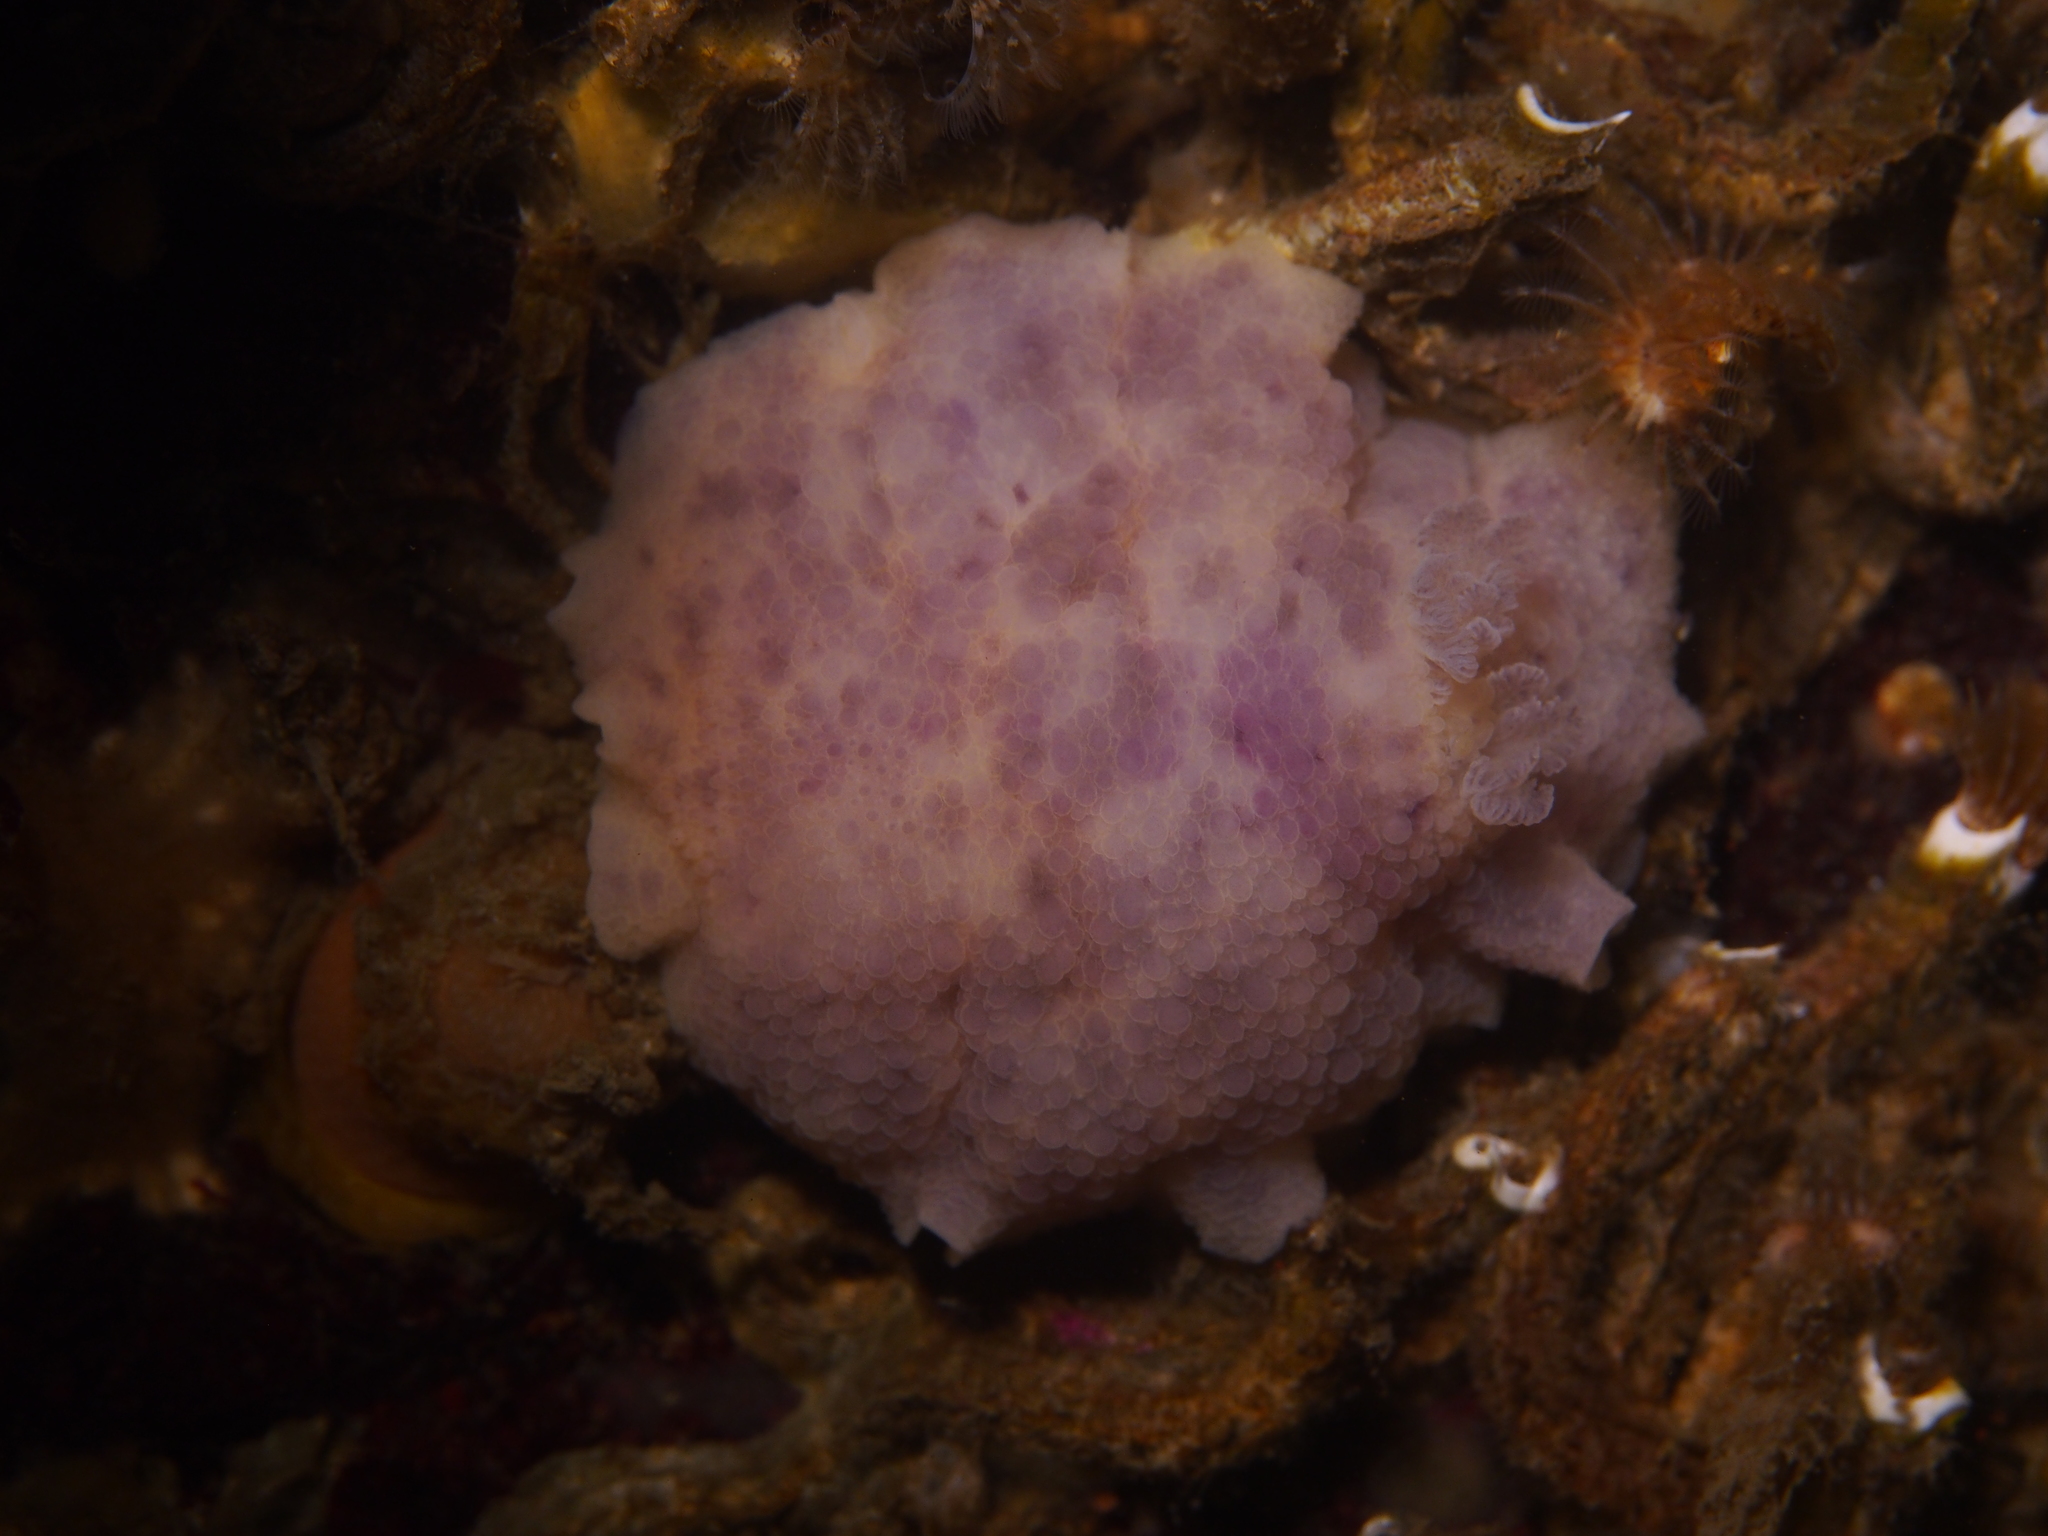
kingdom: Animalia
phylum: Mollusca
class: Gastropoda
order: Nudibranchia
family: Dorididae
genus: Doris
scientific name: Doris pseudoargus
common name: Sea lemon
